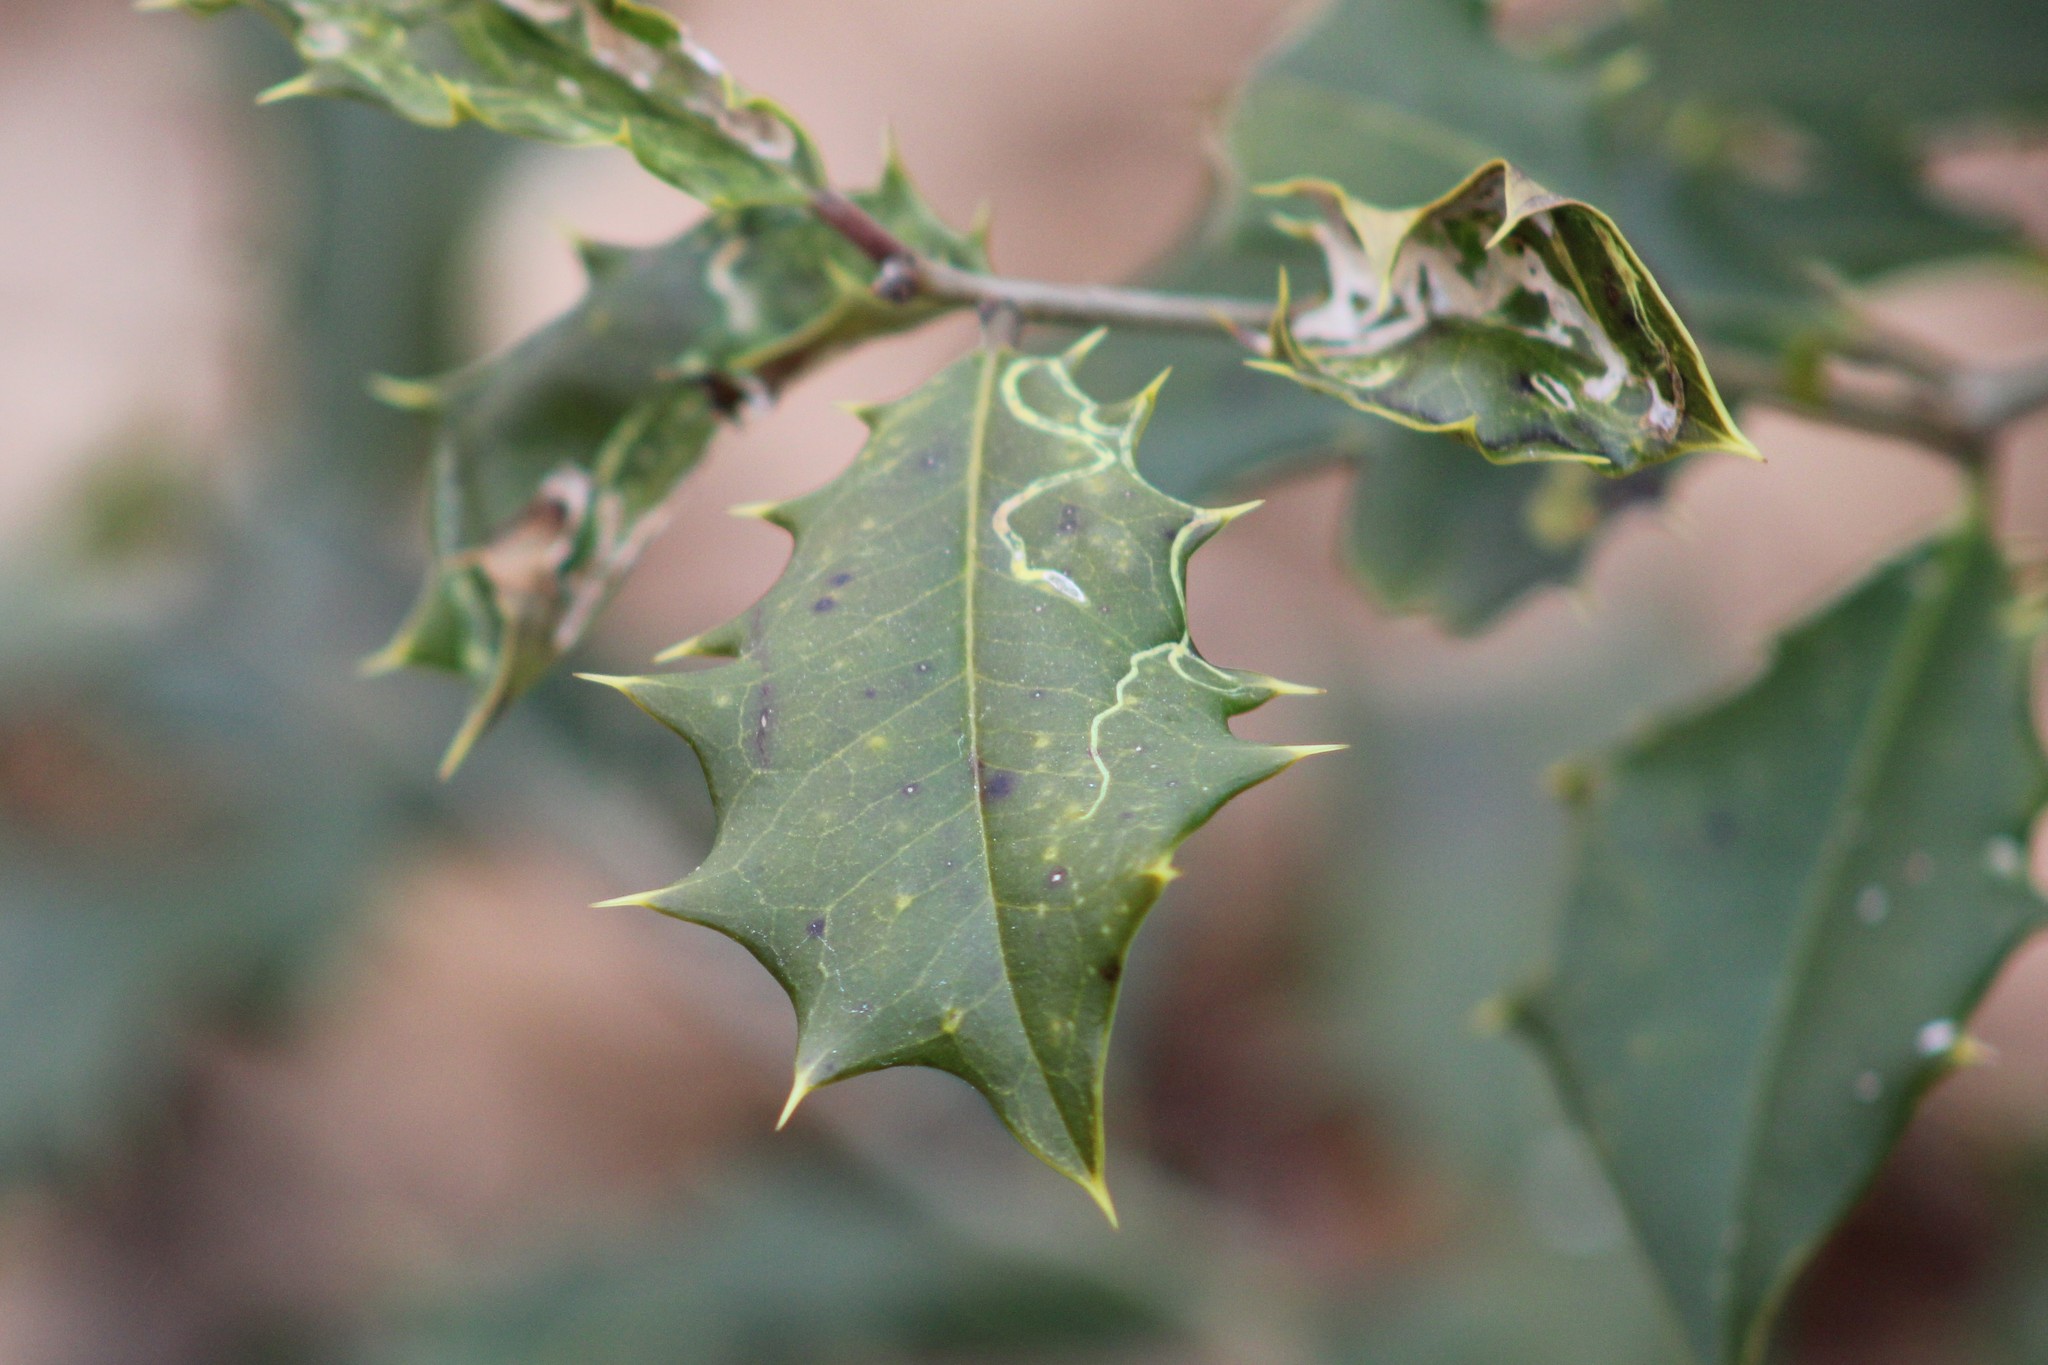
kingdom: Animalia
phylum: Arthropoda
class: Insecta
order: Diptera
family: Agromyzidae
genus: Phytomyza
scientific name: Phytomyza opacae
